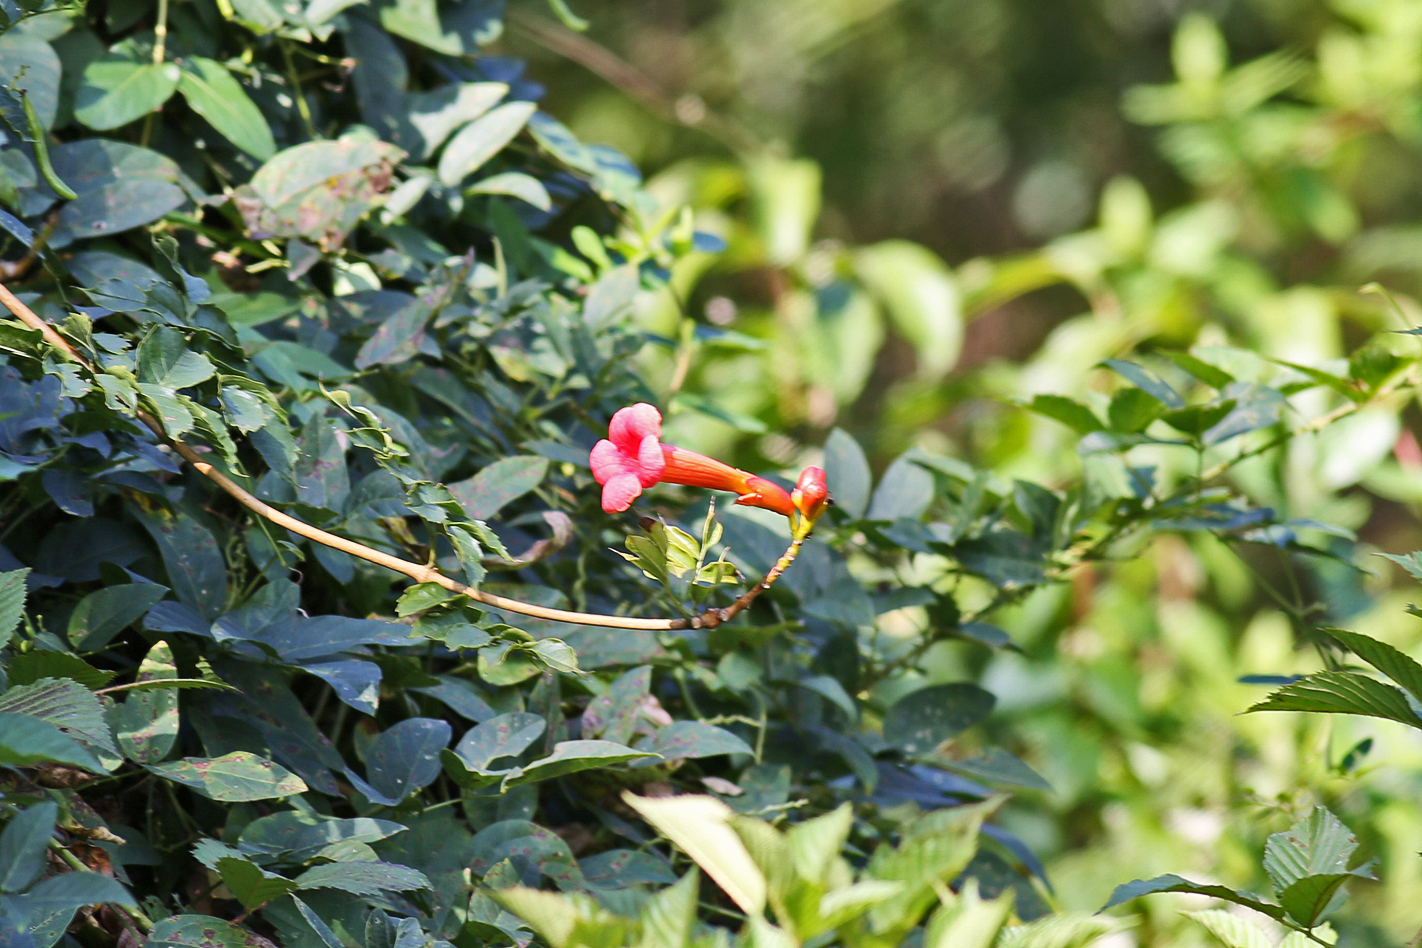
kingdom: Plantae
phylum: Tracheophyta
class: Magnoliopsida
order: Lamiales
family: Bignoniaceae
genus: Campsis
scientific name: Campsis radicans
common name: Trumpet-creeper
